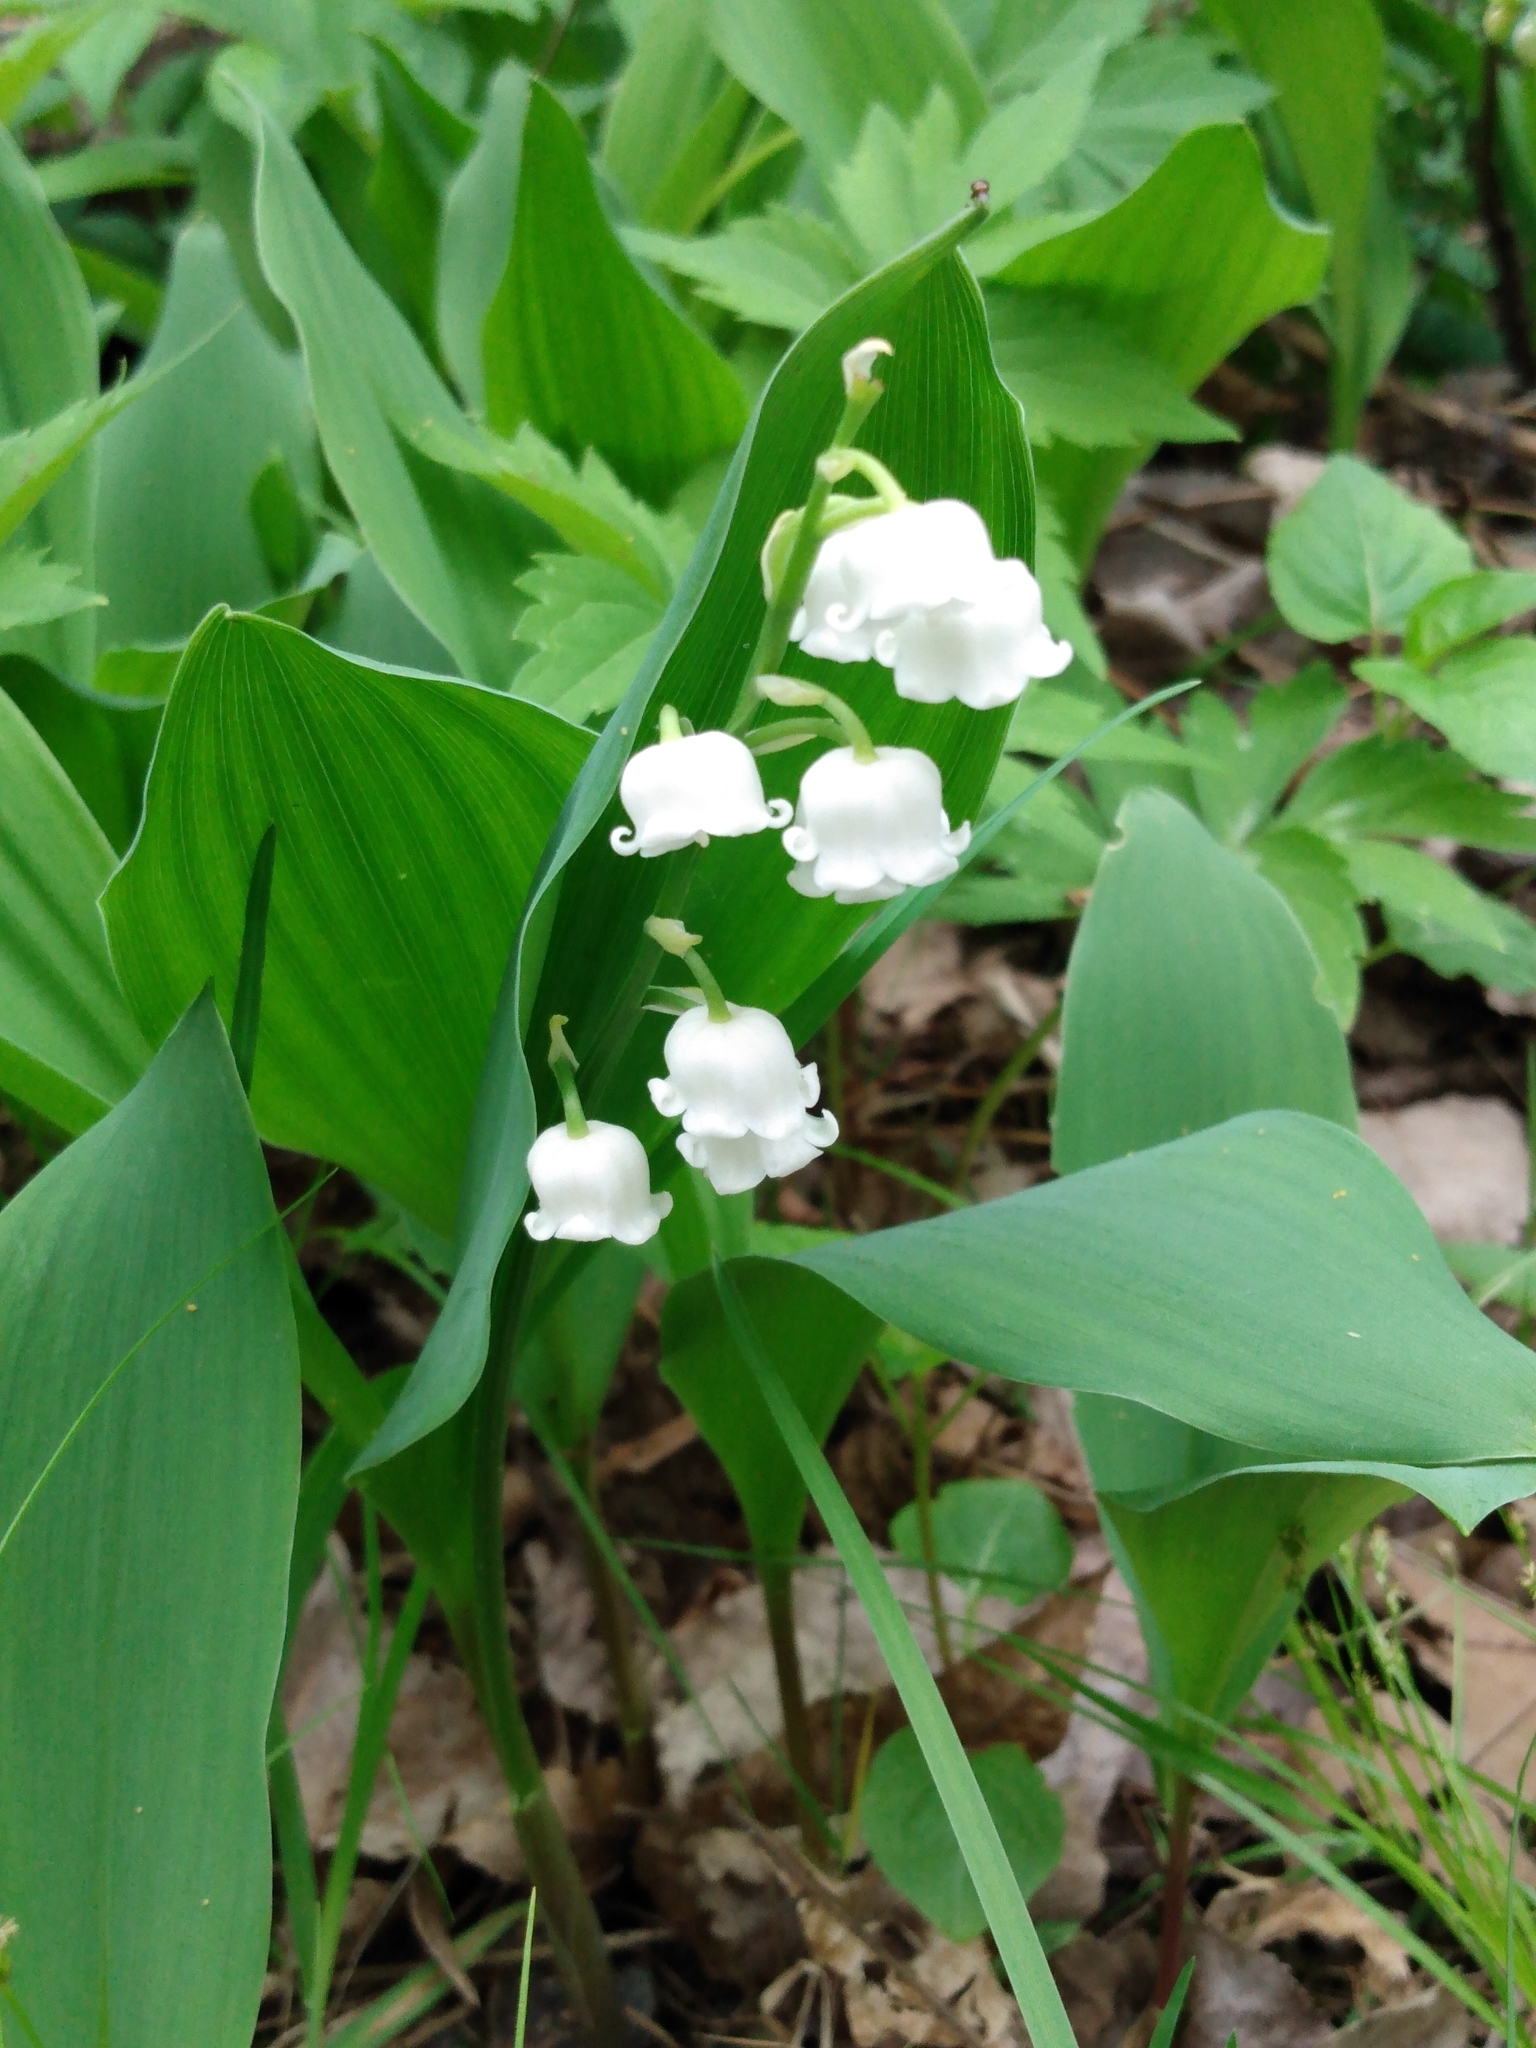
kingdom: Plantae
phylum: Tracheophyta
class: Liliopsida
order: Asparagales
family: Asparagaceae
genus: Convallaria
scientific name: Convallaria majalis
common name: Lily-of-the-valley
